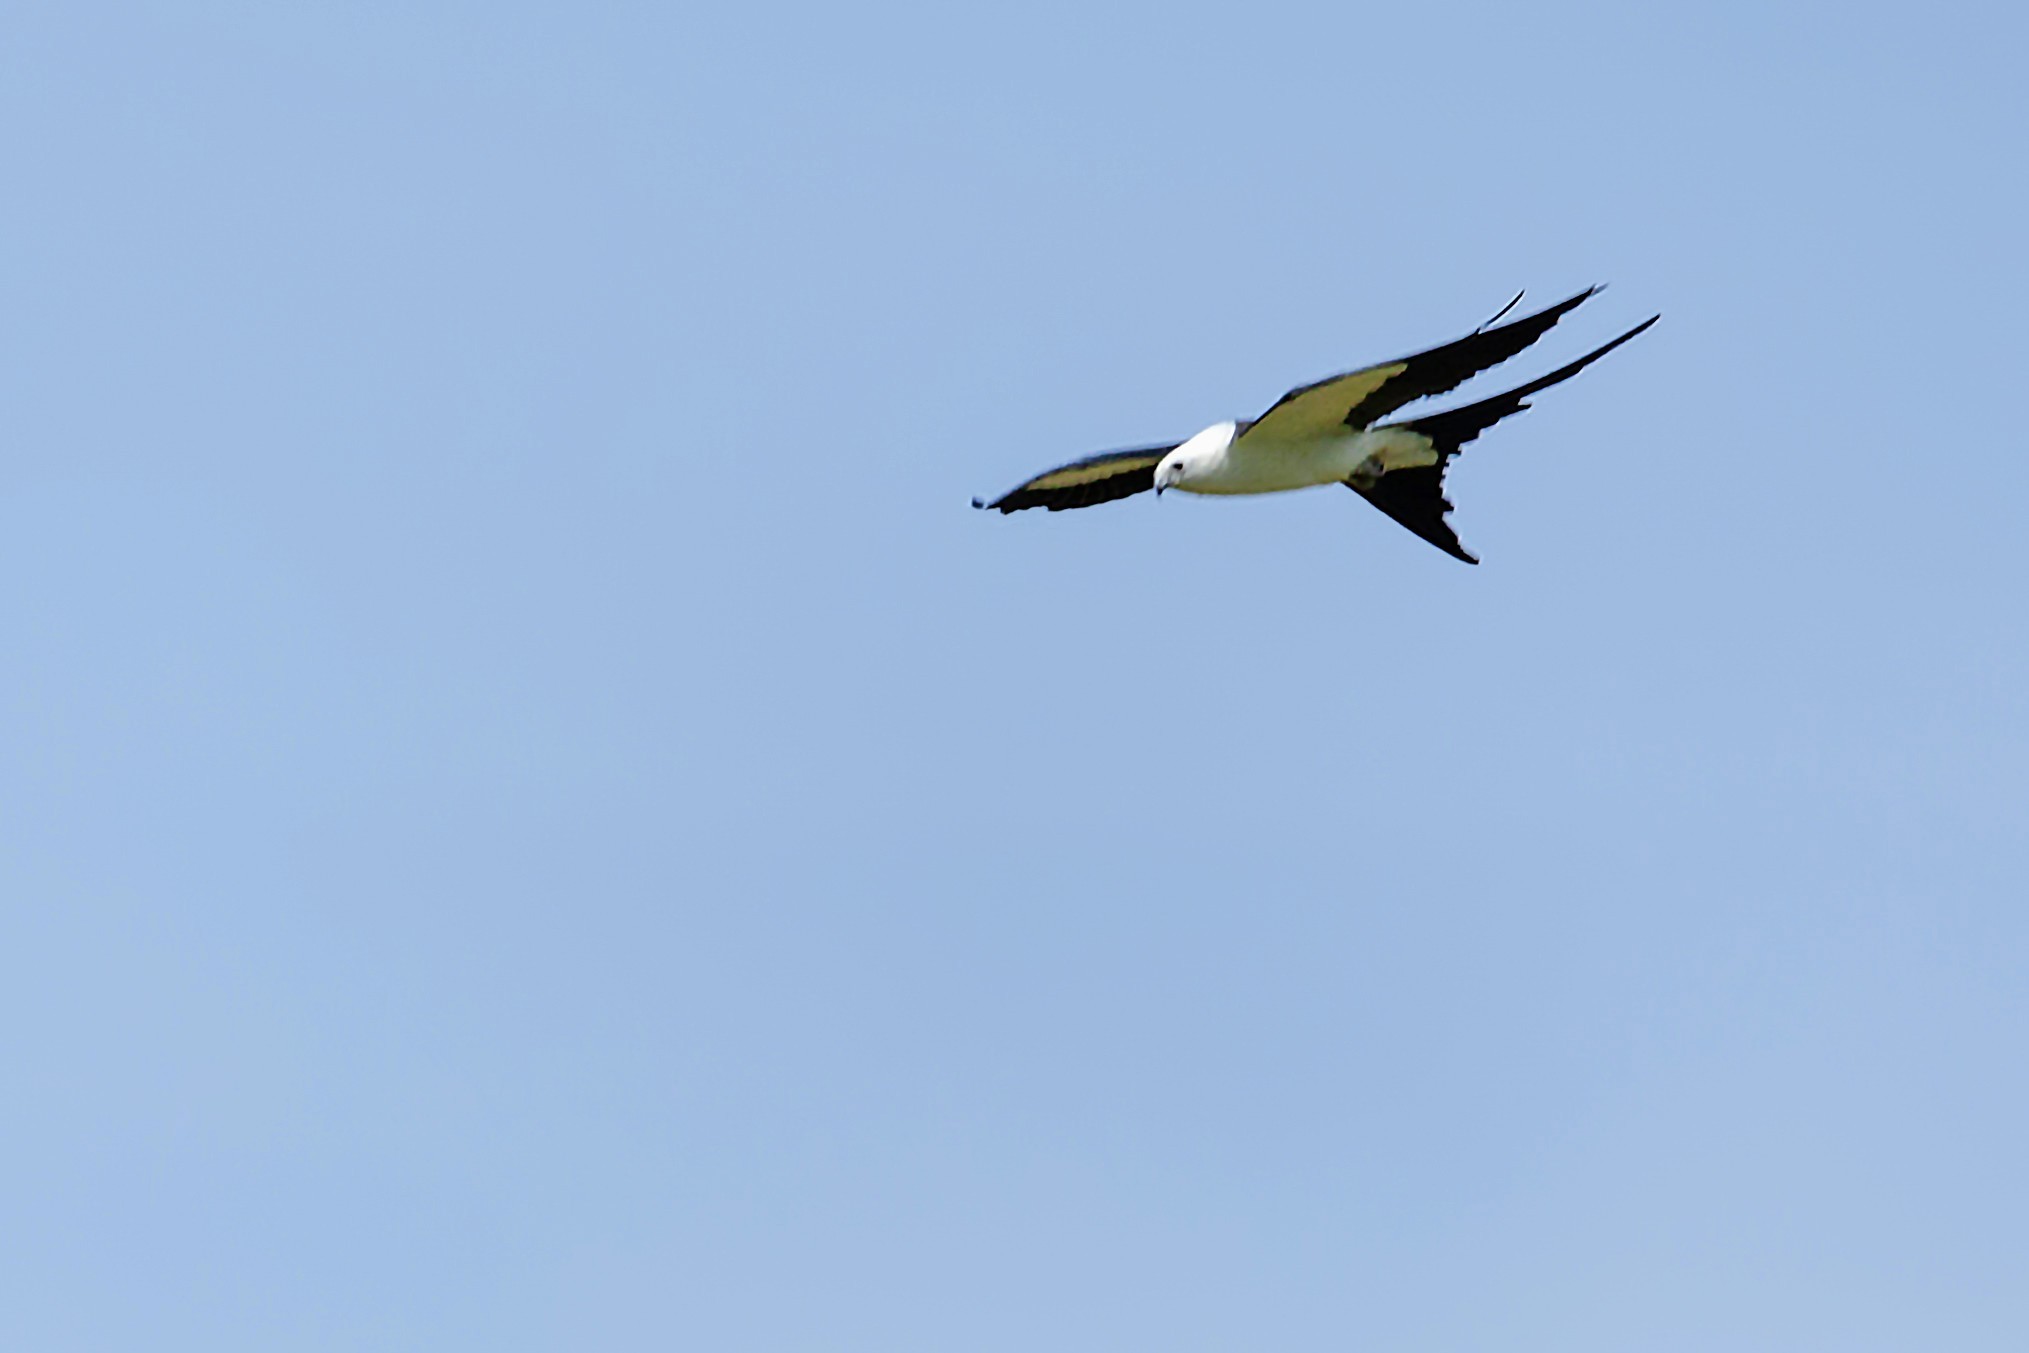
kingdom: Animalia
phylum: Chordata
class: Aves
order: Accipitriformes
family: Accipitridae
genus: Elanoides
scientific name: Elanoides forficatus
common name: Swallow-tailed kite
